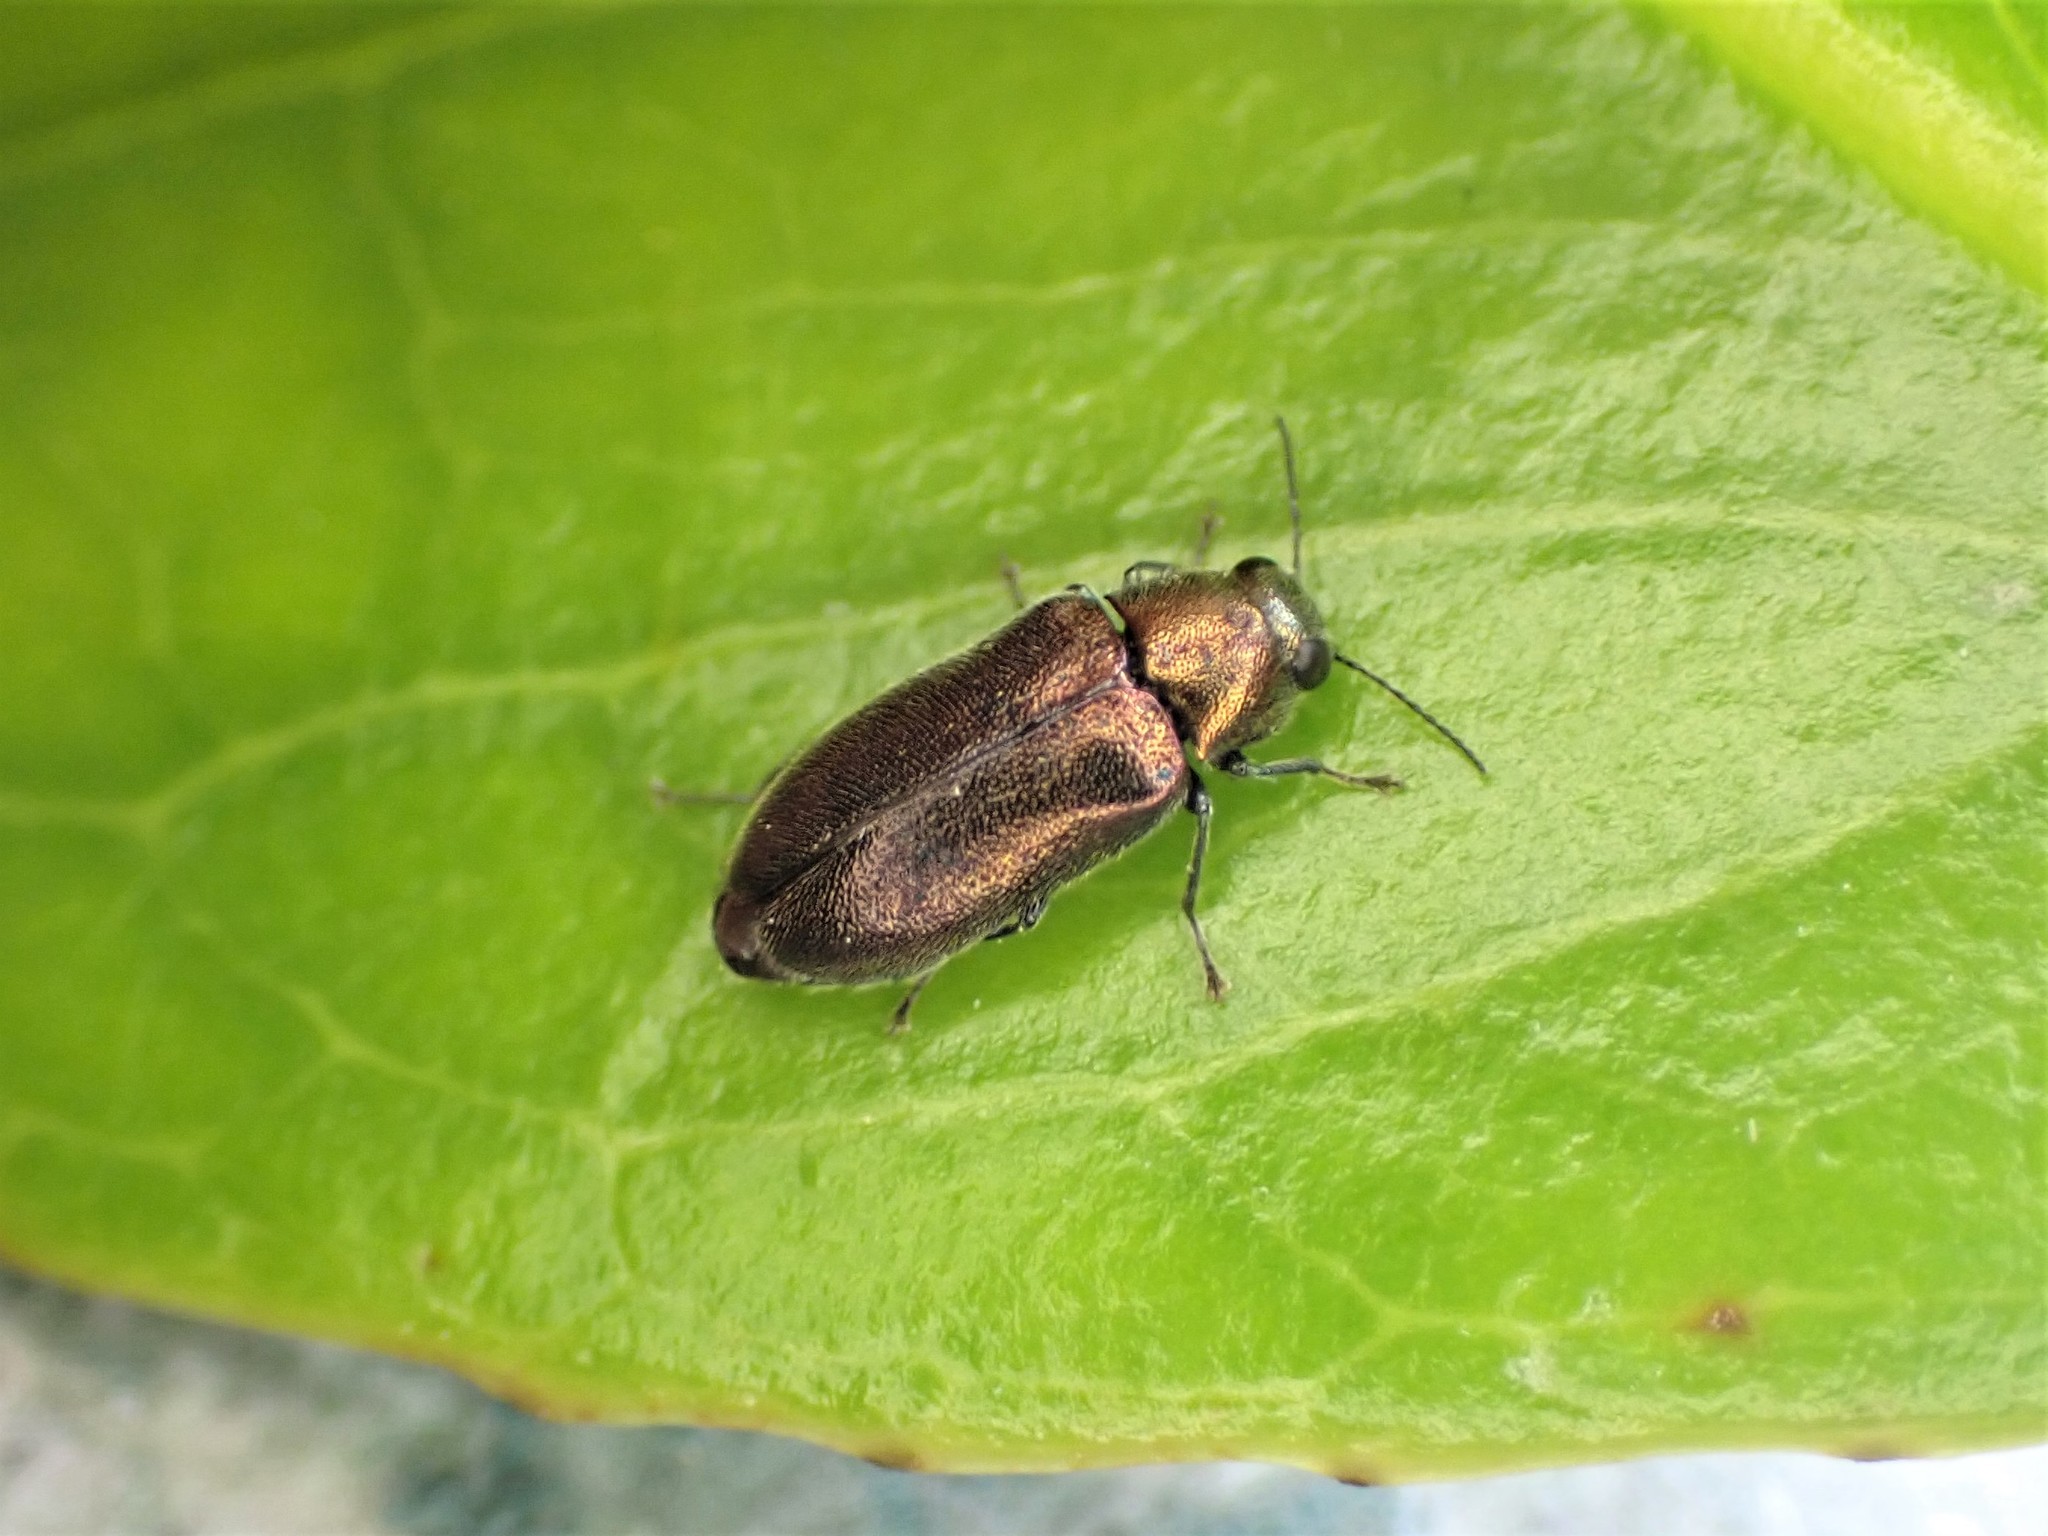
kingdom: Animalia
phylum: Arthropoda
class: Insecta
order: Coleoptera
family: Buprestidae
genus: Maoraxia
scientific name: Maoraxia eremita
